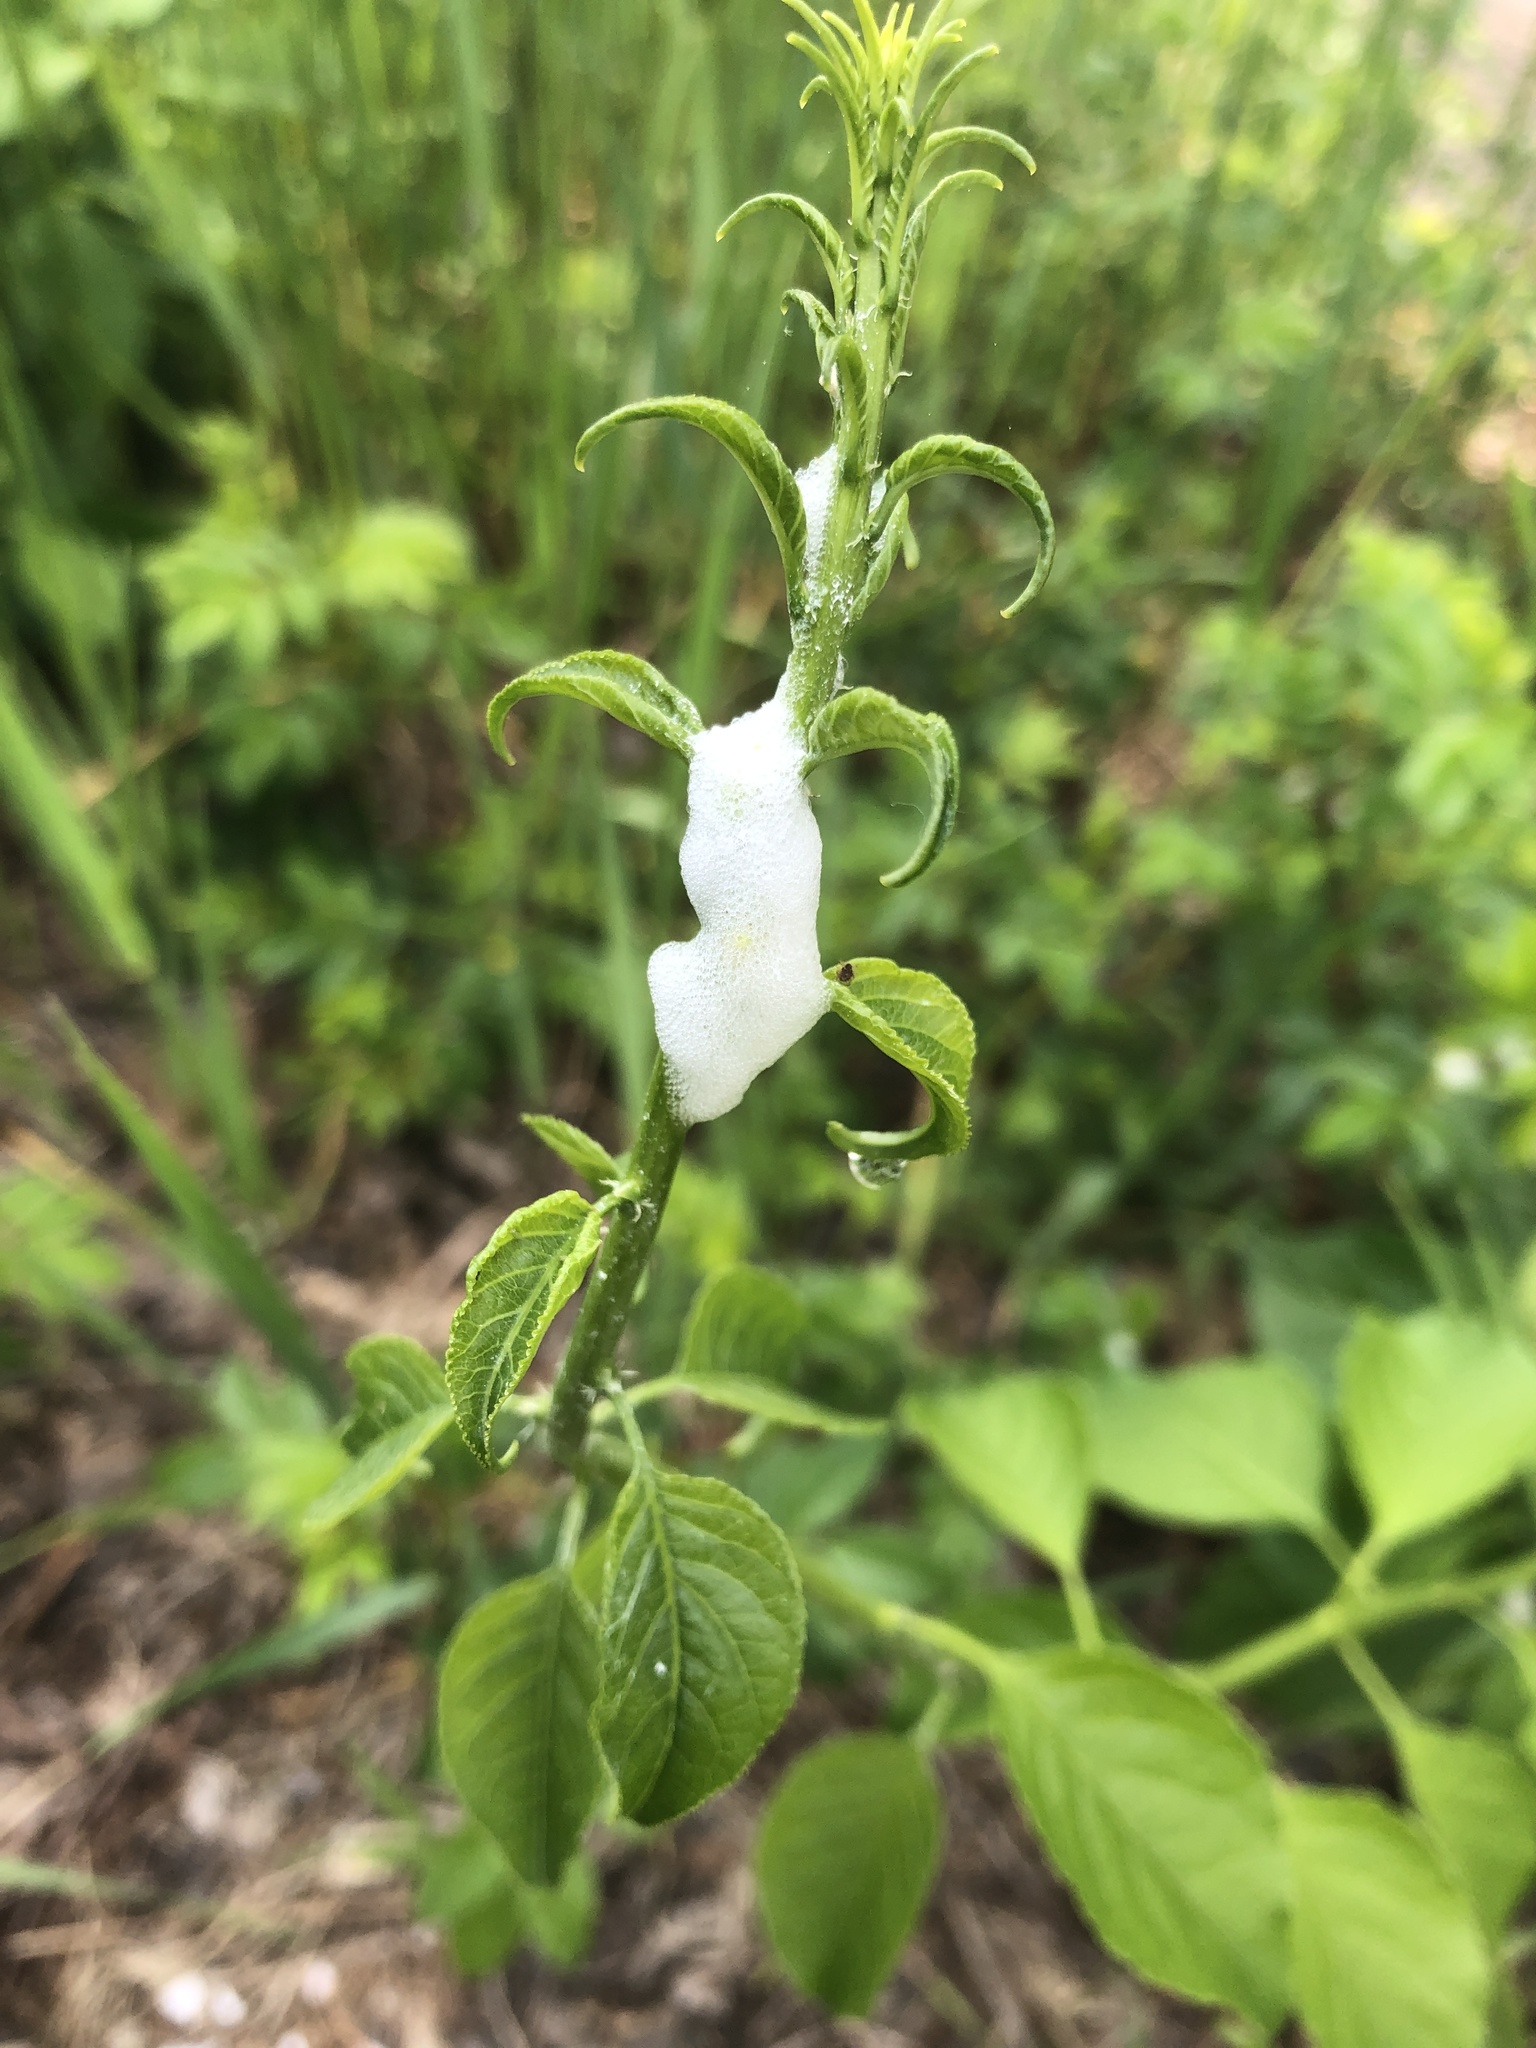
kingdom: Animalia
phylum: Arthropoda
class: Insecta
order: Hemiptera
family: Aphrophoridae
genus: Philaenus
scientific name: Philaenus spumarius
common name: Meadow spittlebug
